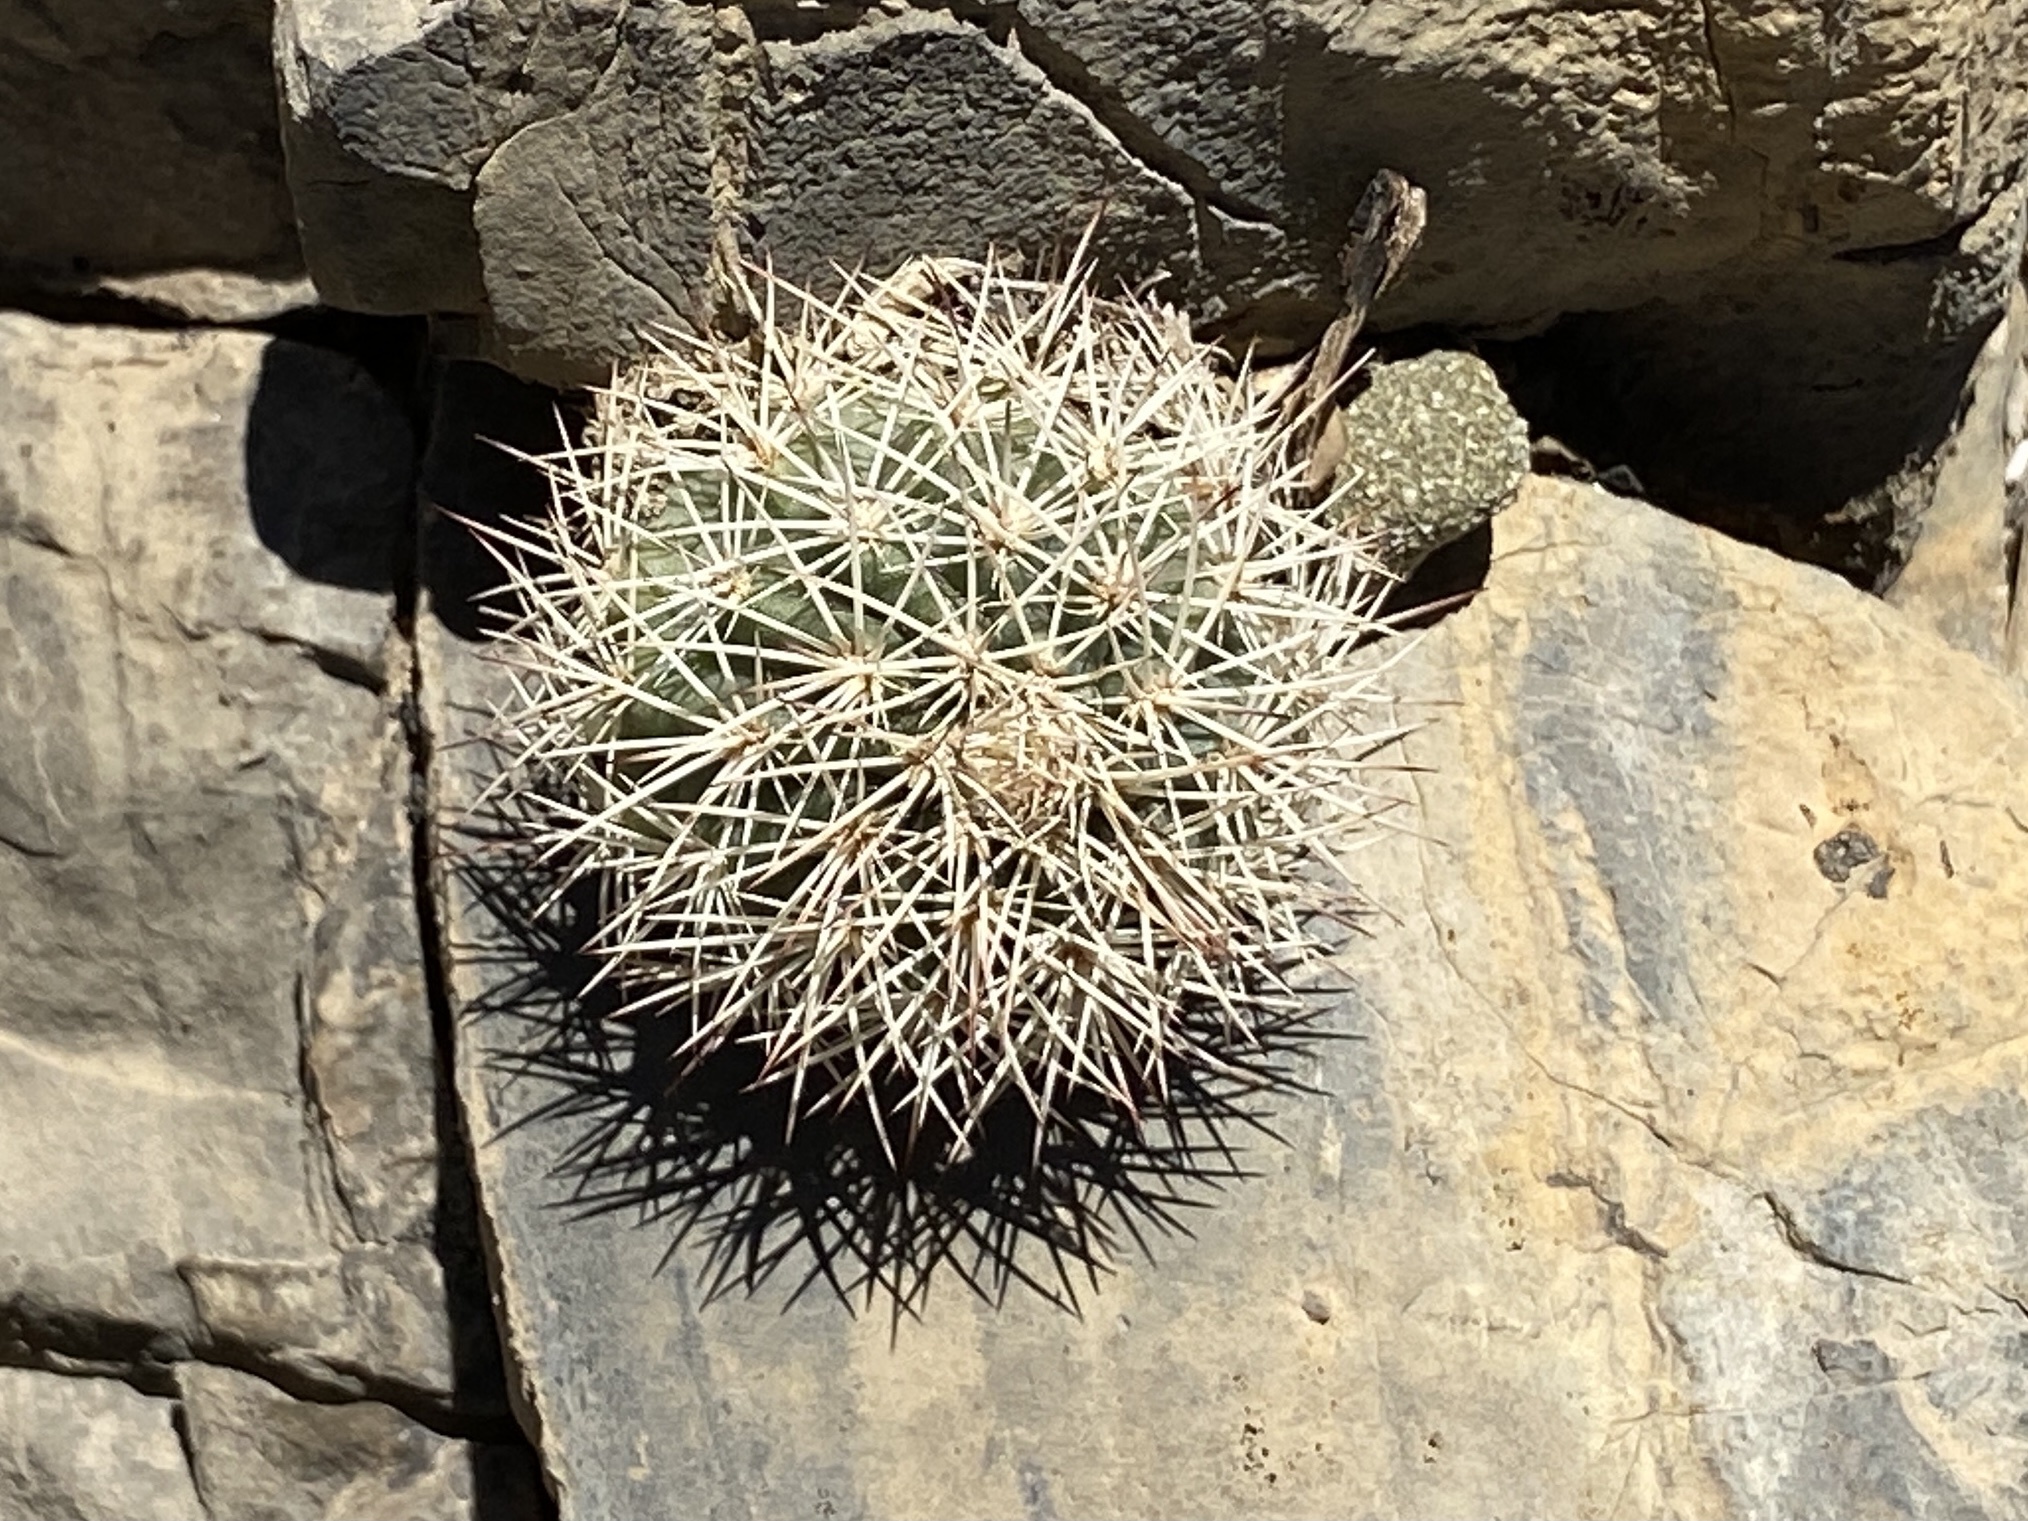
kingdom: Plantae
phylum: Tracheophyta
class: Magnoliopsida
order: Caryophyllales
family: Cactaceae
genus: Echinocereus
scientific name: Echinocereus dasyacanthus
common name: Spiny hedgehog cactus
